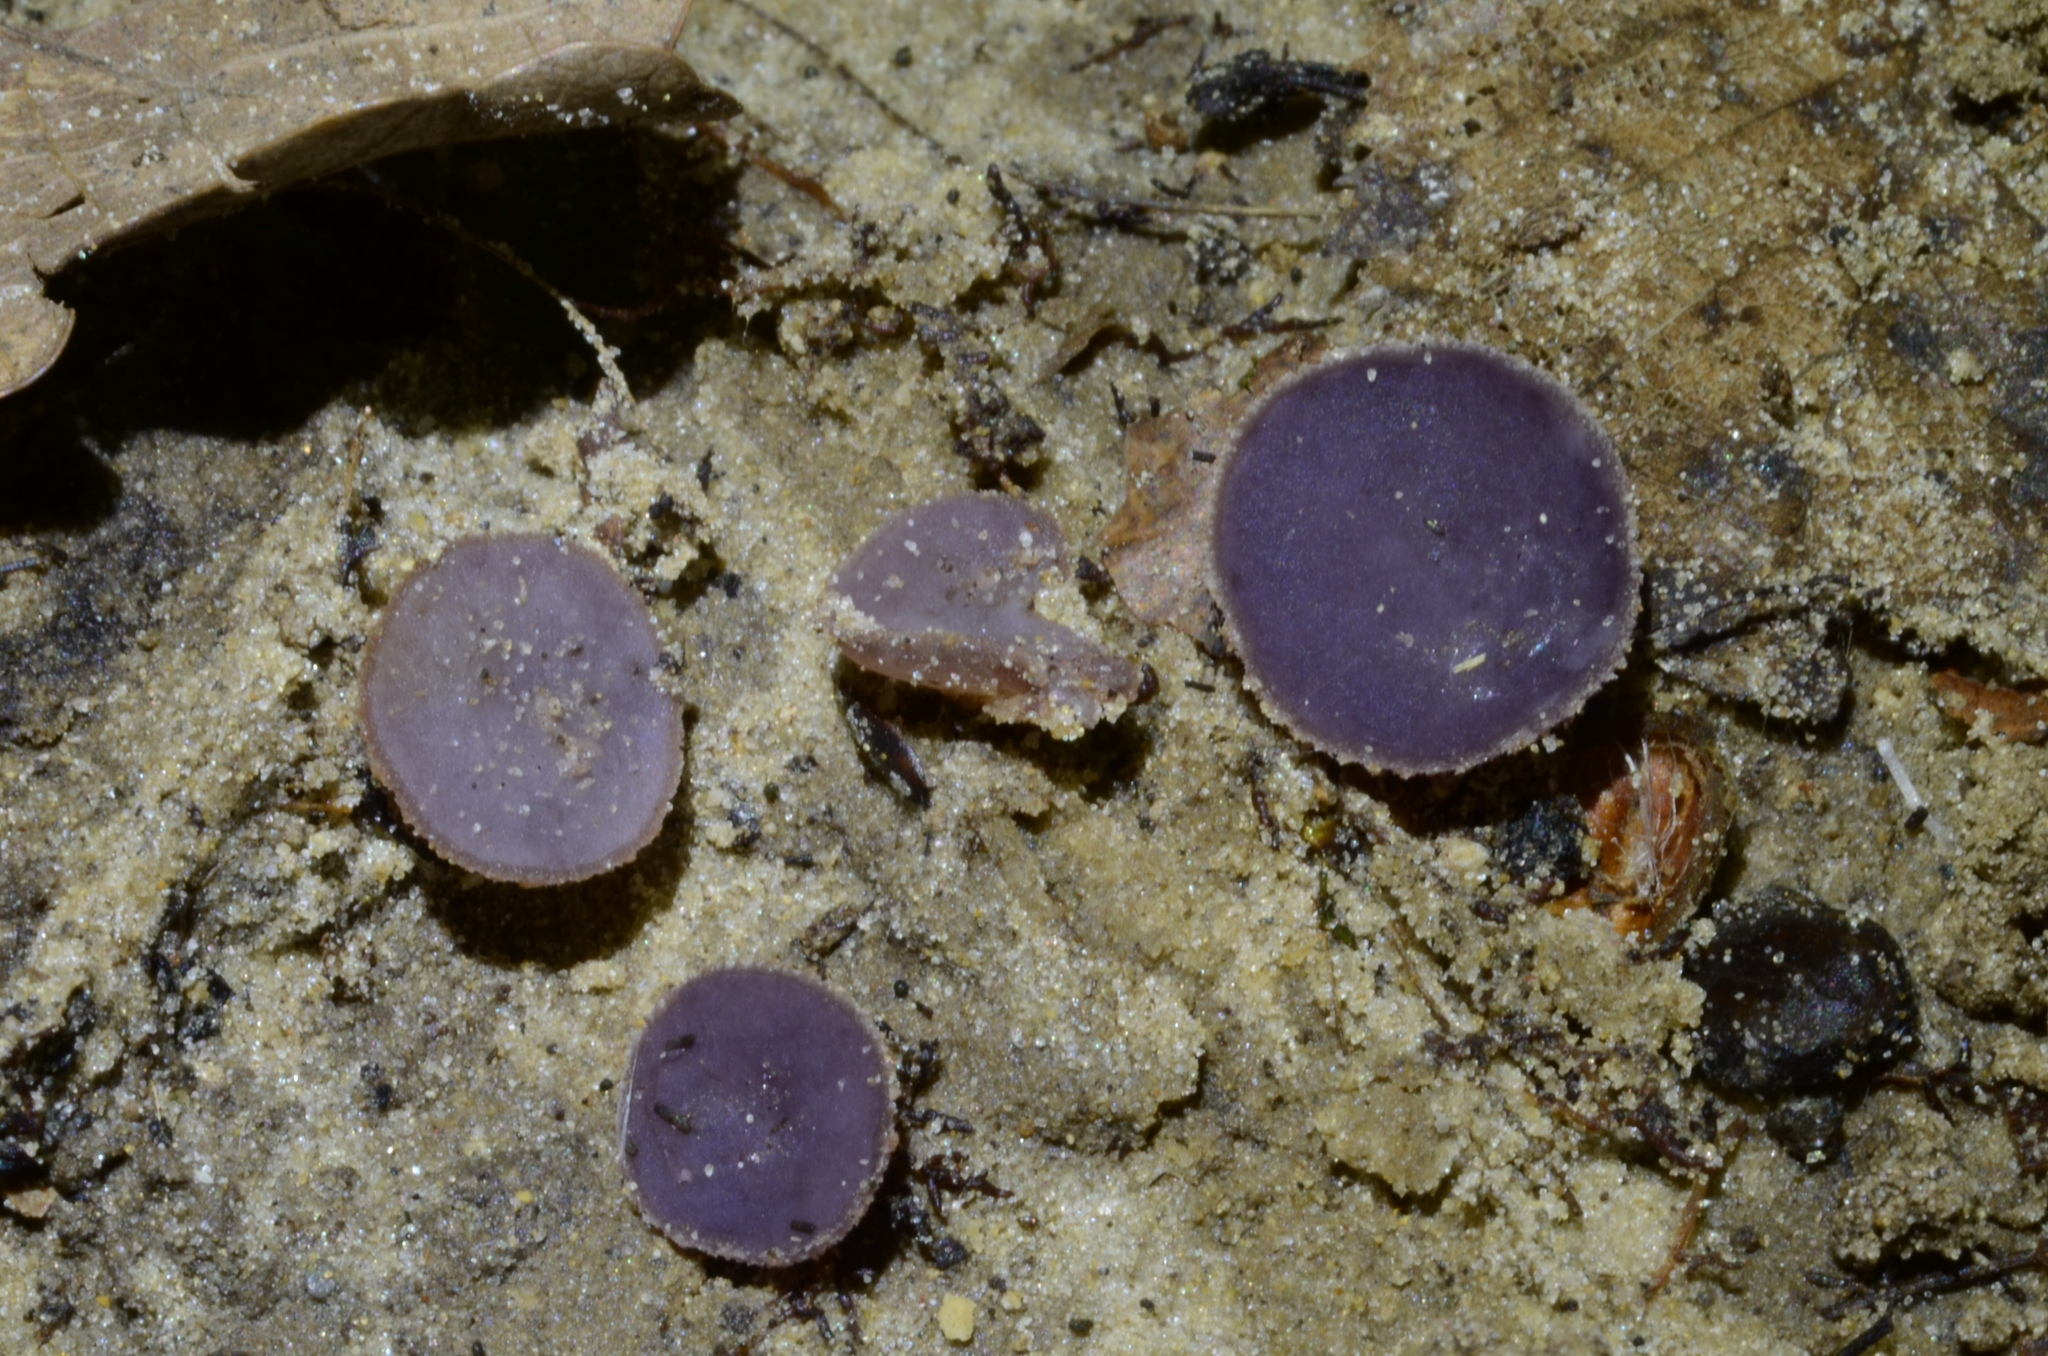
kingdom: Fungi
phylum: Ascomycota
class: Pezizomycetes
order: Pezizales
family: Pezizaceae
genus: Ionopezia
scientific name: Ionopezia gerardii
